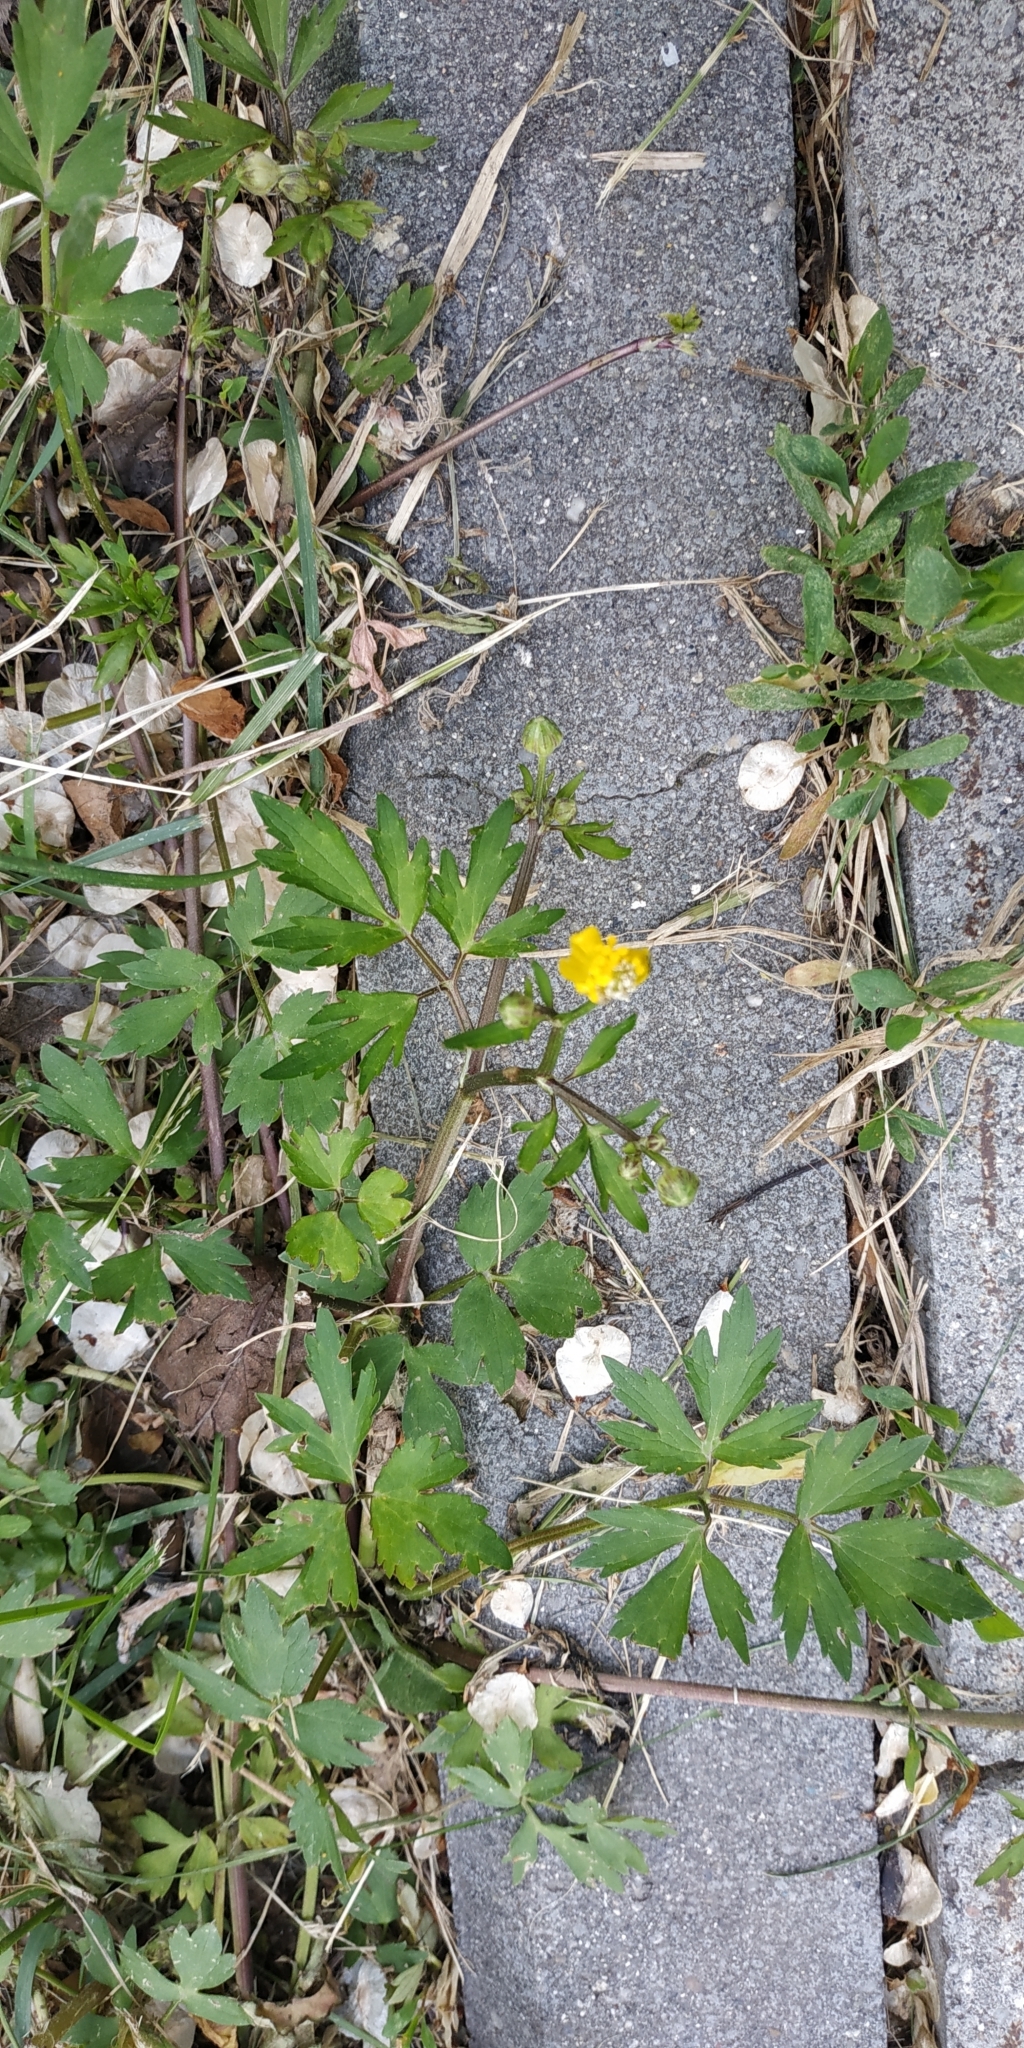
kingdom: Plantae
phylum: Tracheophyta
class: Magnoliopsida
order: Ranunculales
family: Ranunculaceae
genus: Ranunculus
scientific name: Ranunculus repens
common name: Creeping buttercup
